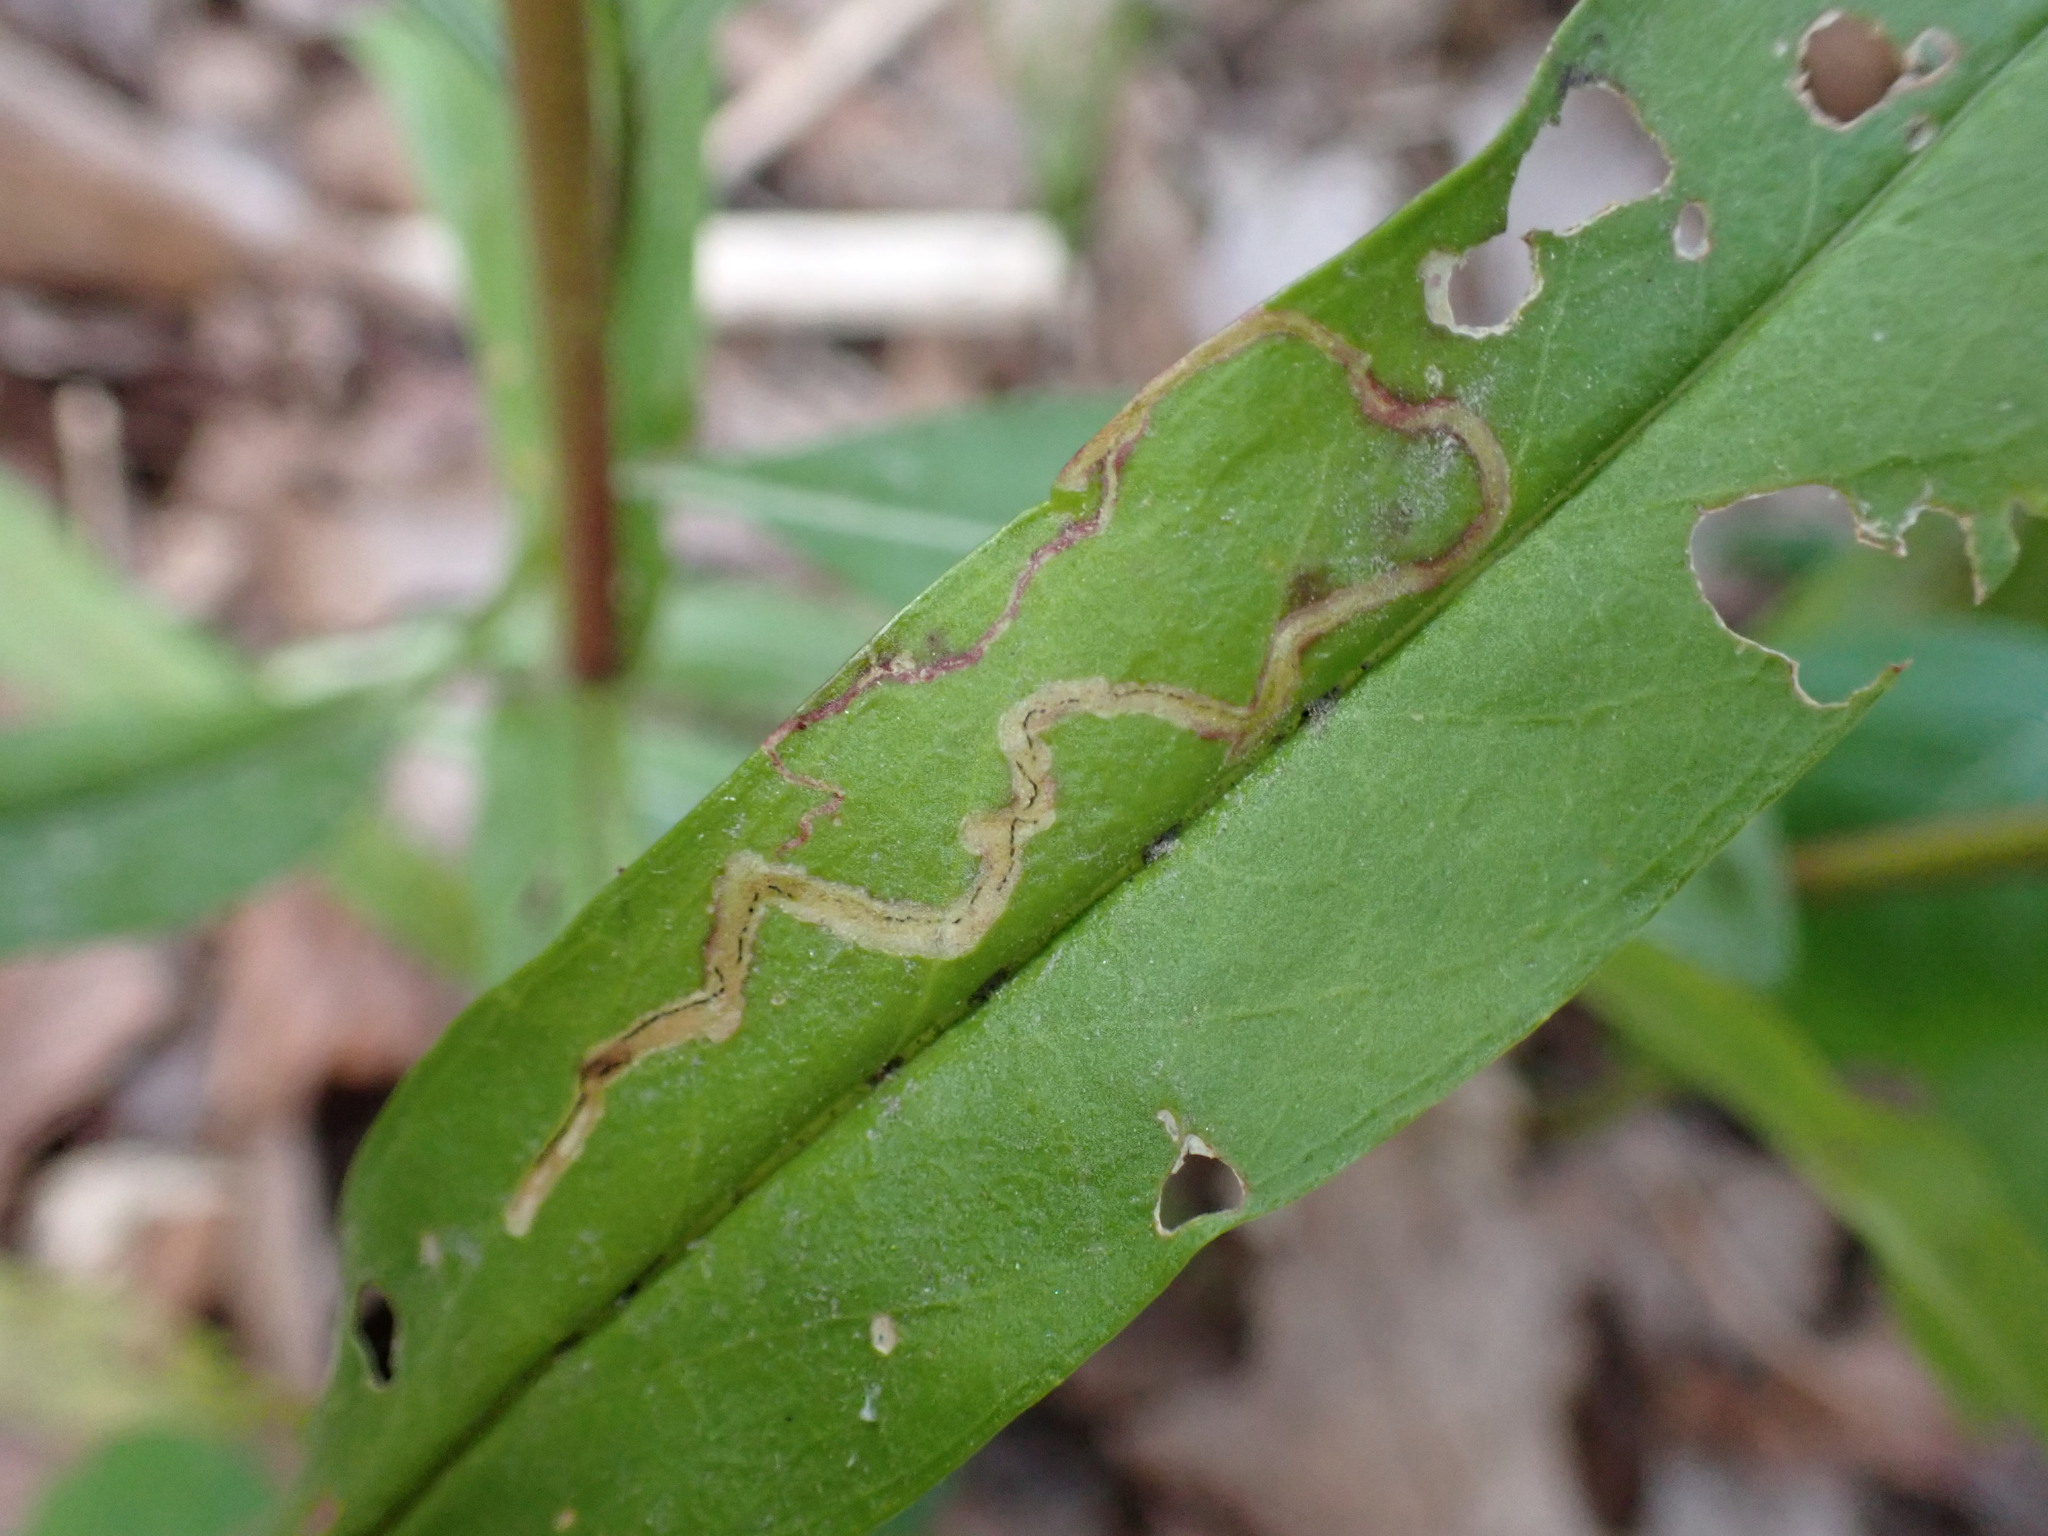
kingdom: Animalia
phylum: Arthropoda
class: Insecta
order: Diptera
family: Agromyzidae
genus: Phytomyza
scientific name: Phytomyza penstemonis
